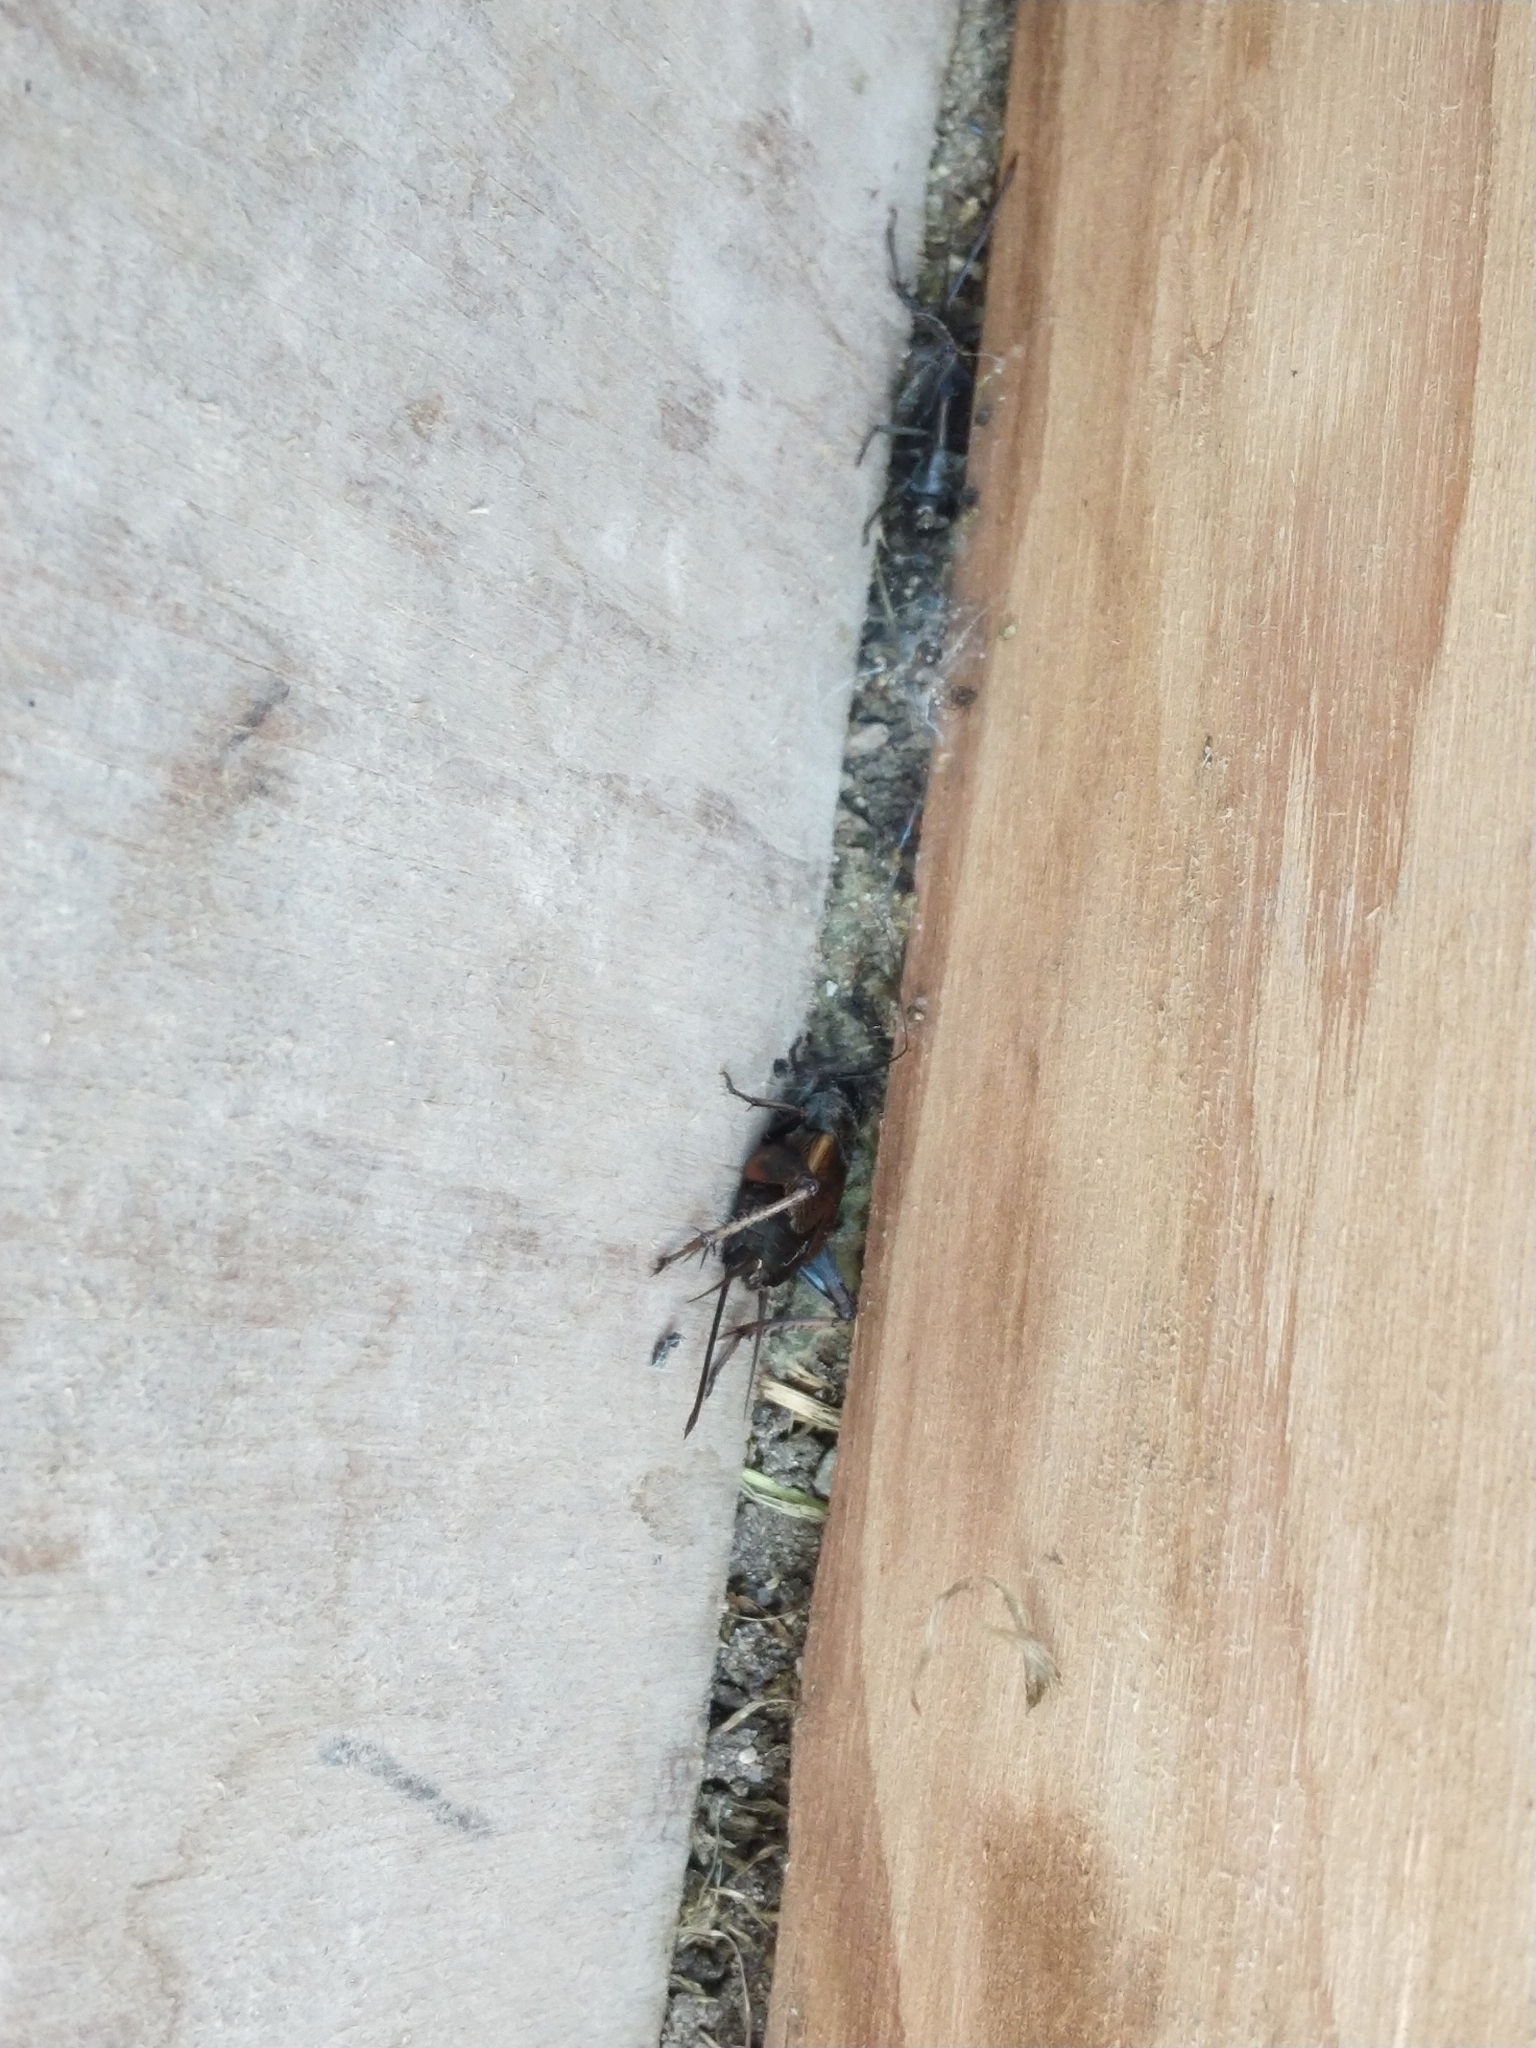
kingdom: Animalia
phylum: Arthropoda
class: Insecta
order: Orthoptera
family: Gryllidae
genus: Gryllus
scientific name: Gryllus pennsylvanicus
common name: Fall field cricket
